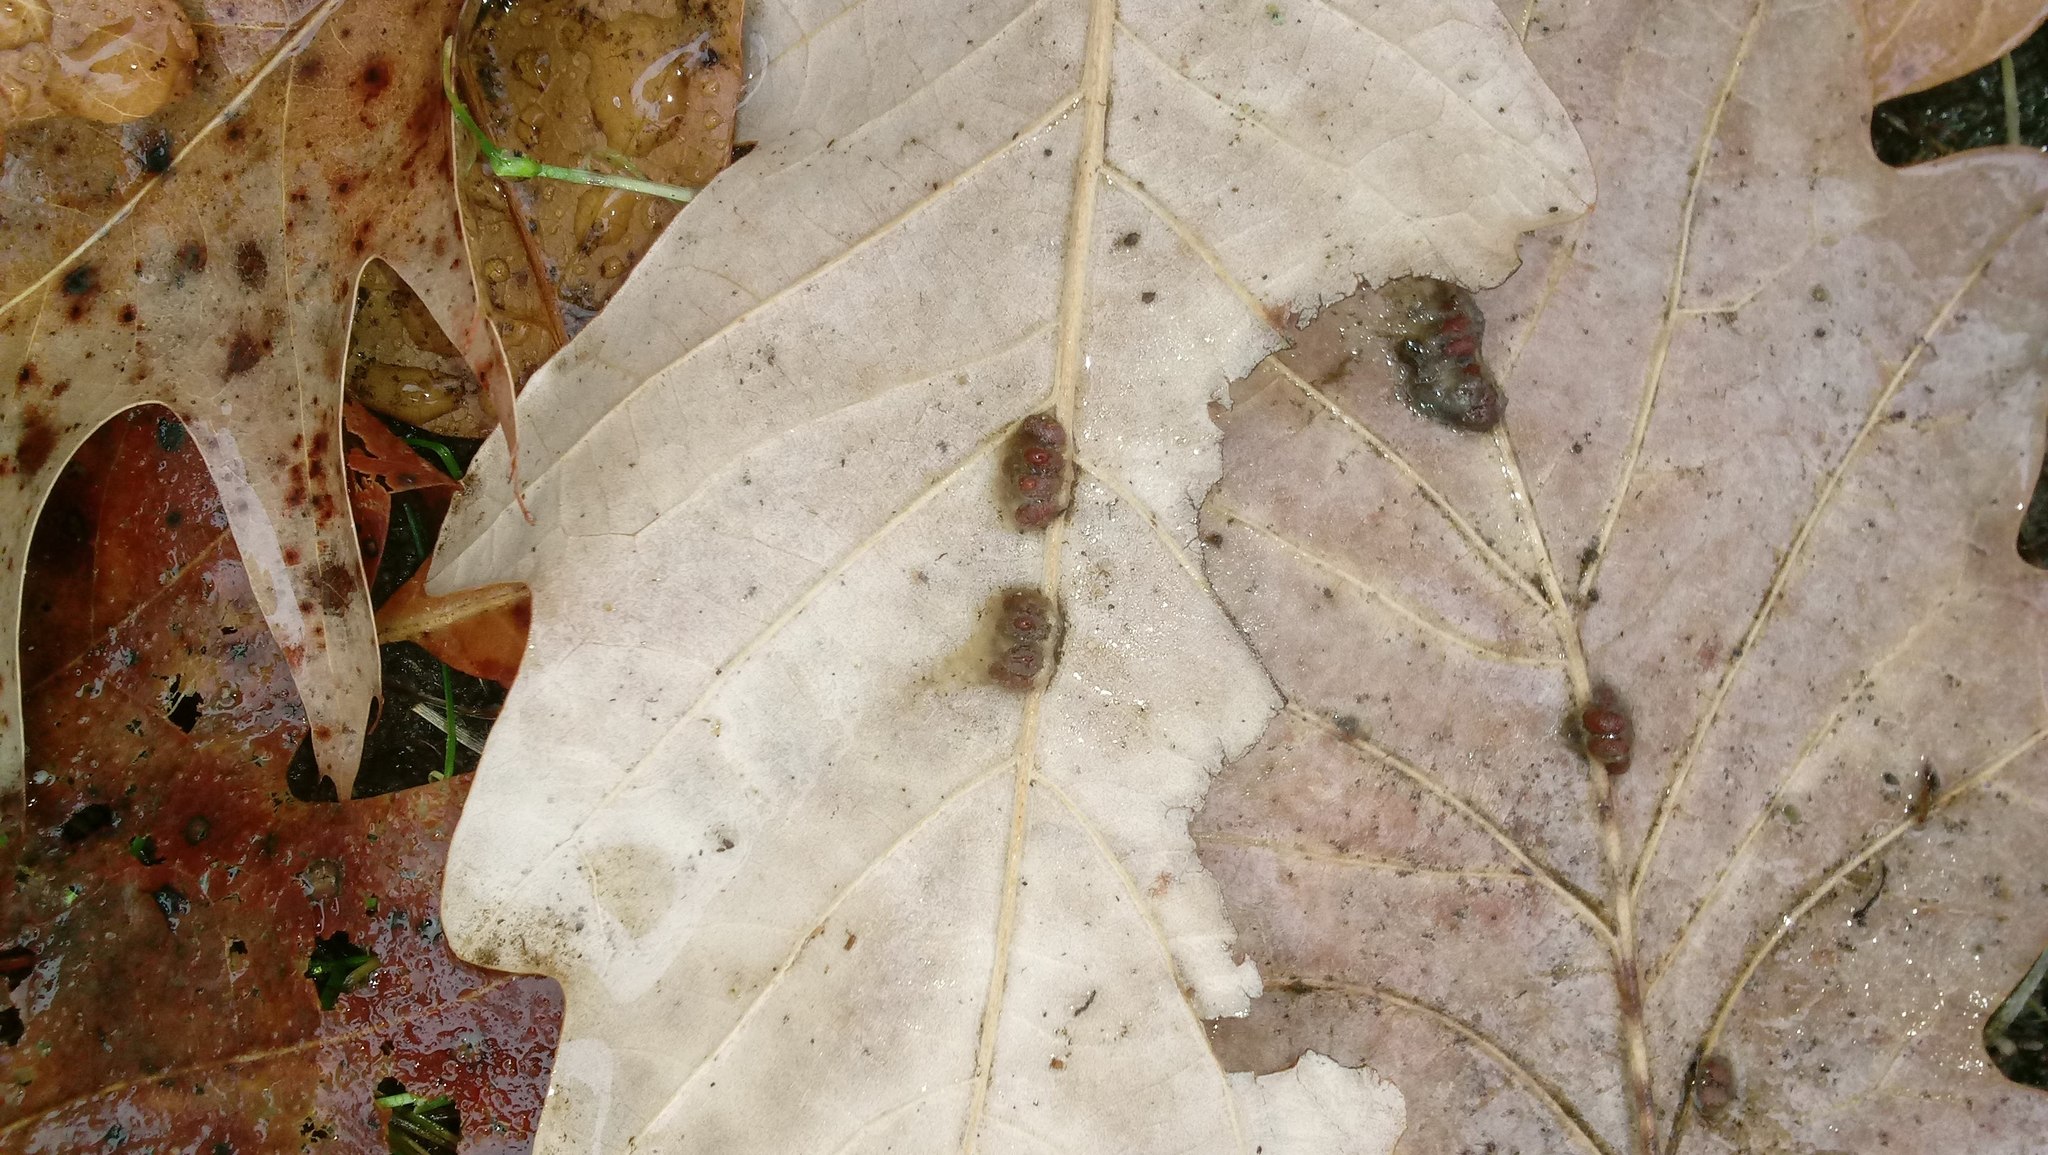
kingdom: Animalia
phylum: Arthropoda
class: Insecta
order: Hymenoptera
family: Cynipidae
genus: Andricus
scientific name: Andricus Druon ignotum
